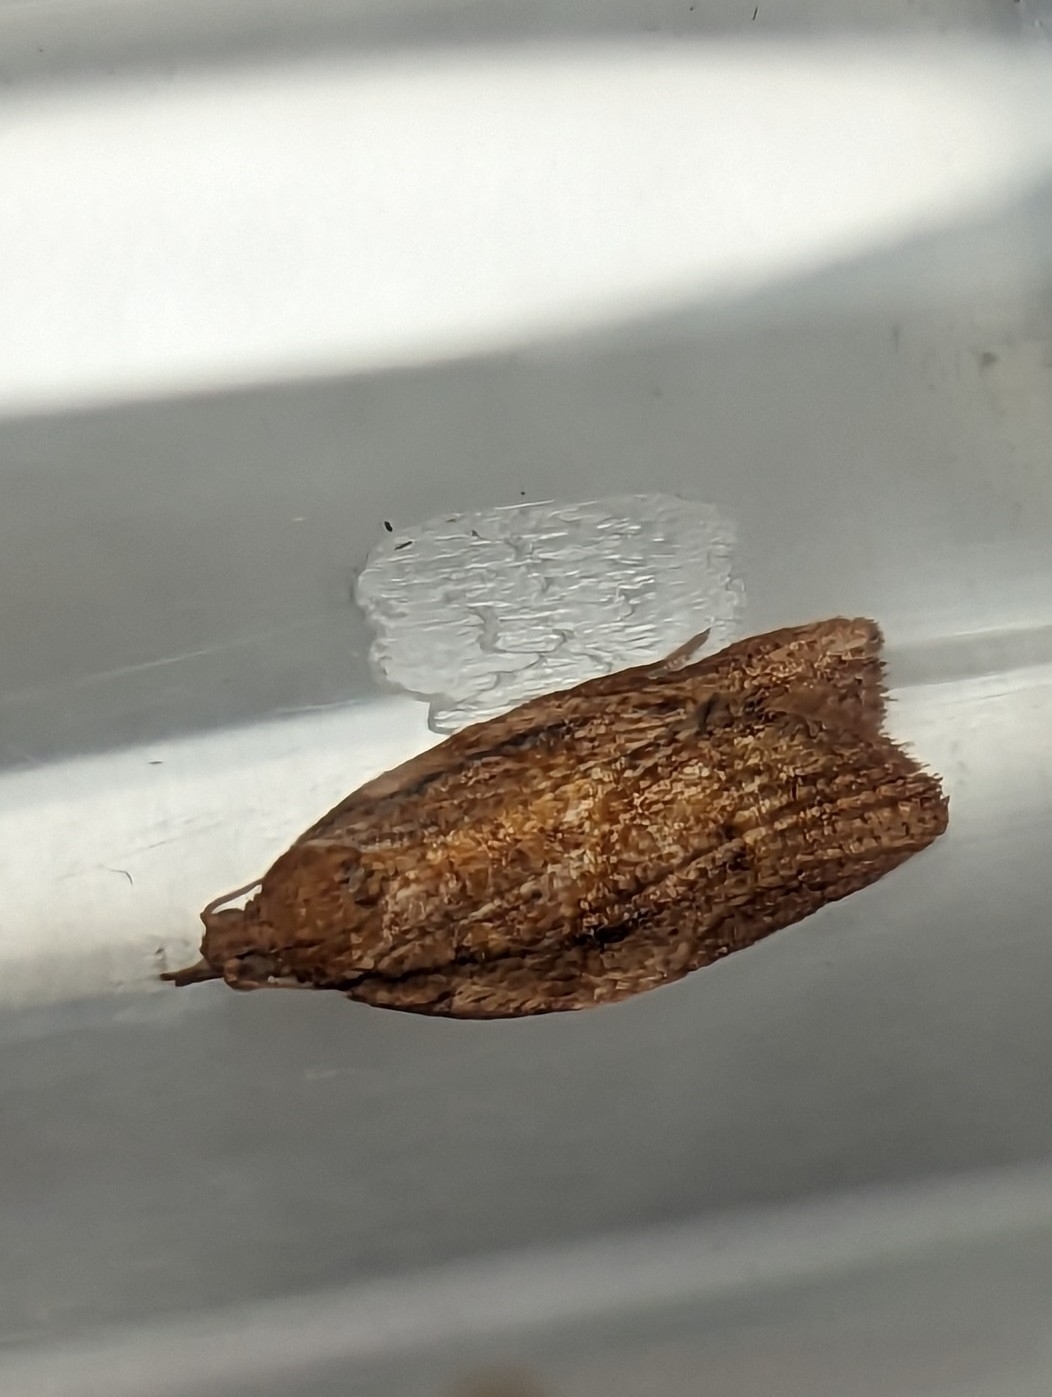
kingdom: Animalia
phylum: Arthropoda
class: Insecta
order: Lepidoptera
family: Tortricidae
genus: Epiphyas
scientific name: Epiphyas postvittana
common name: Light brown apple moth
